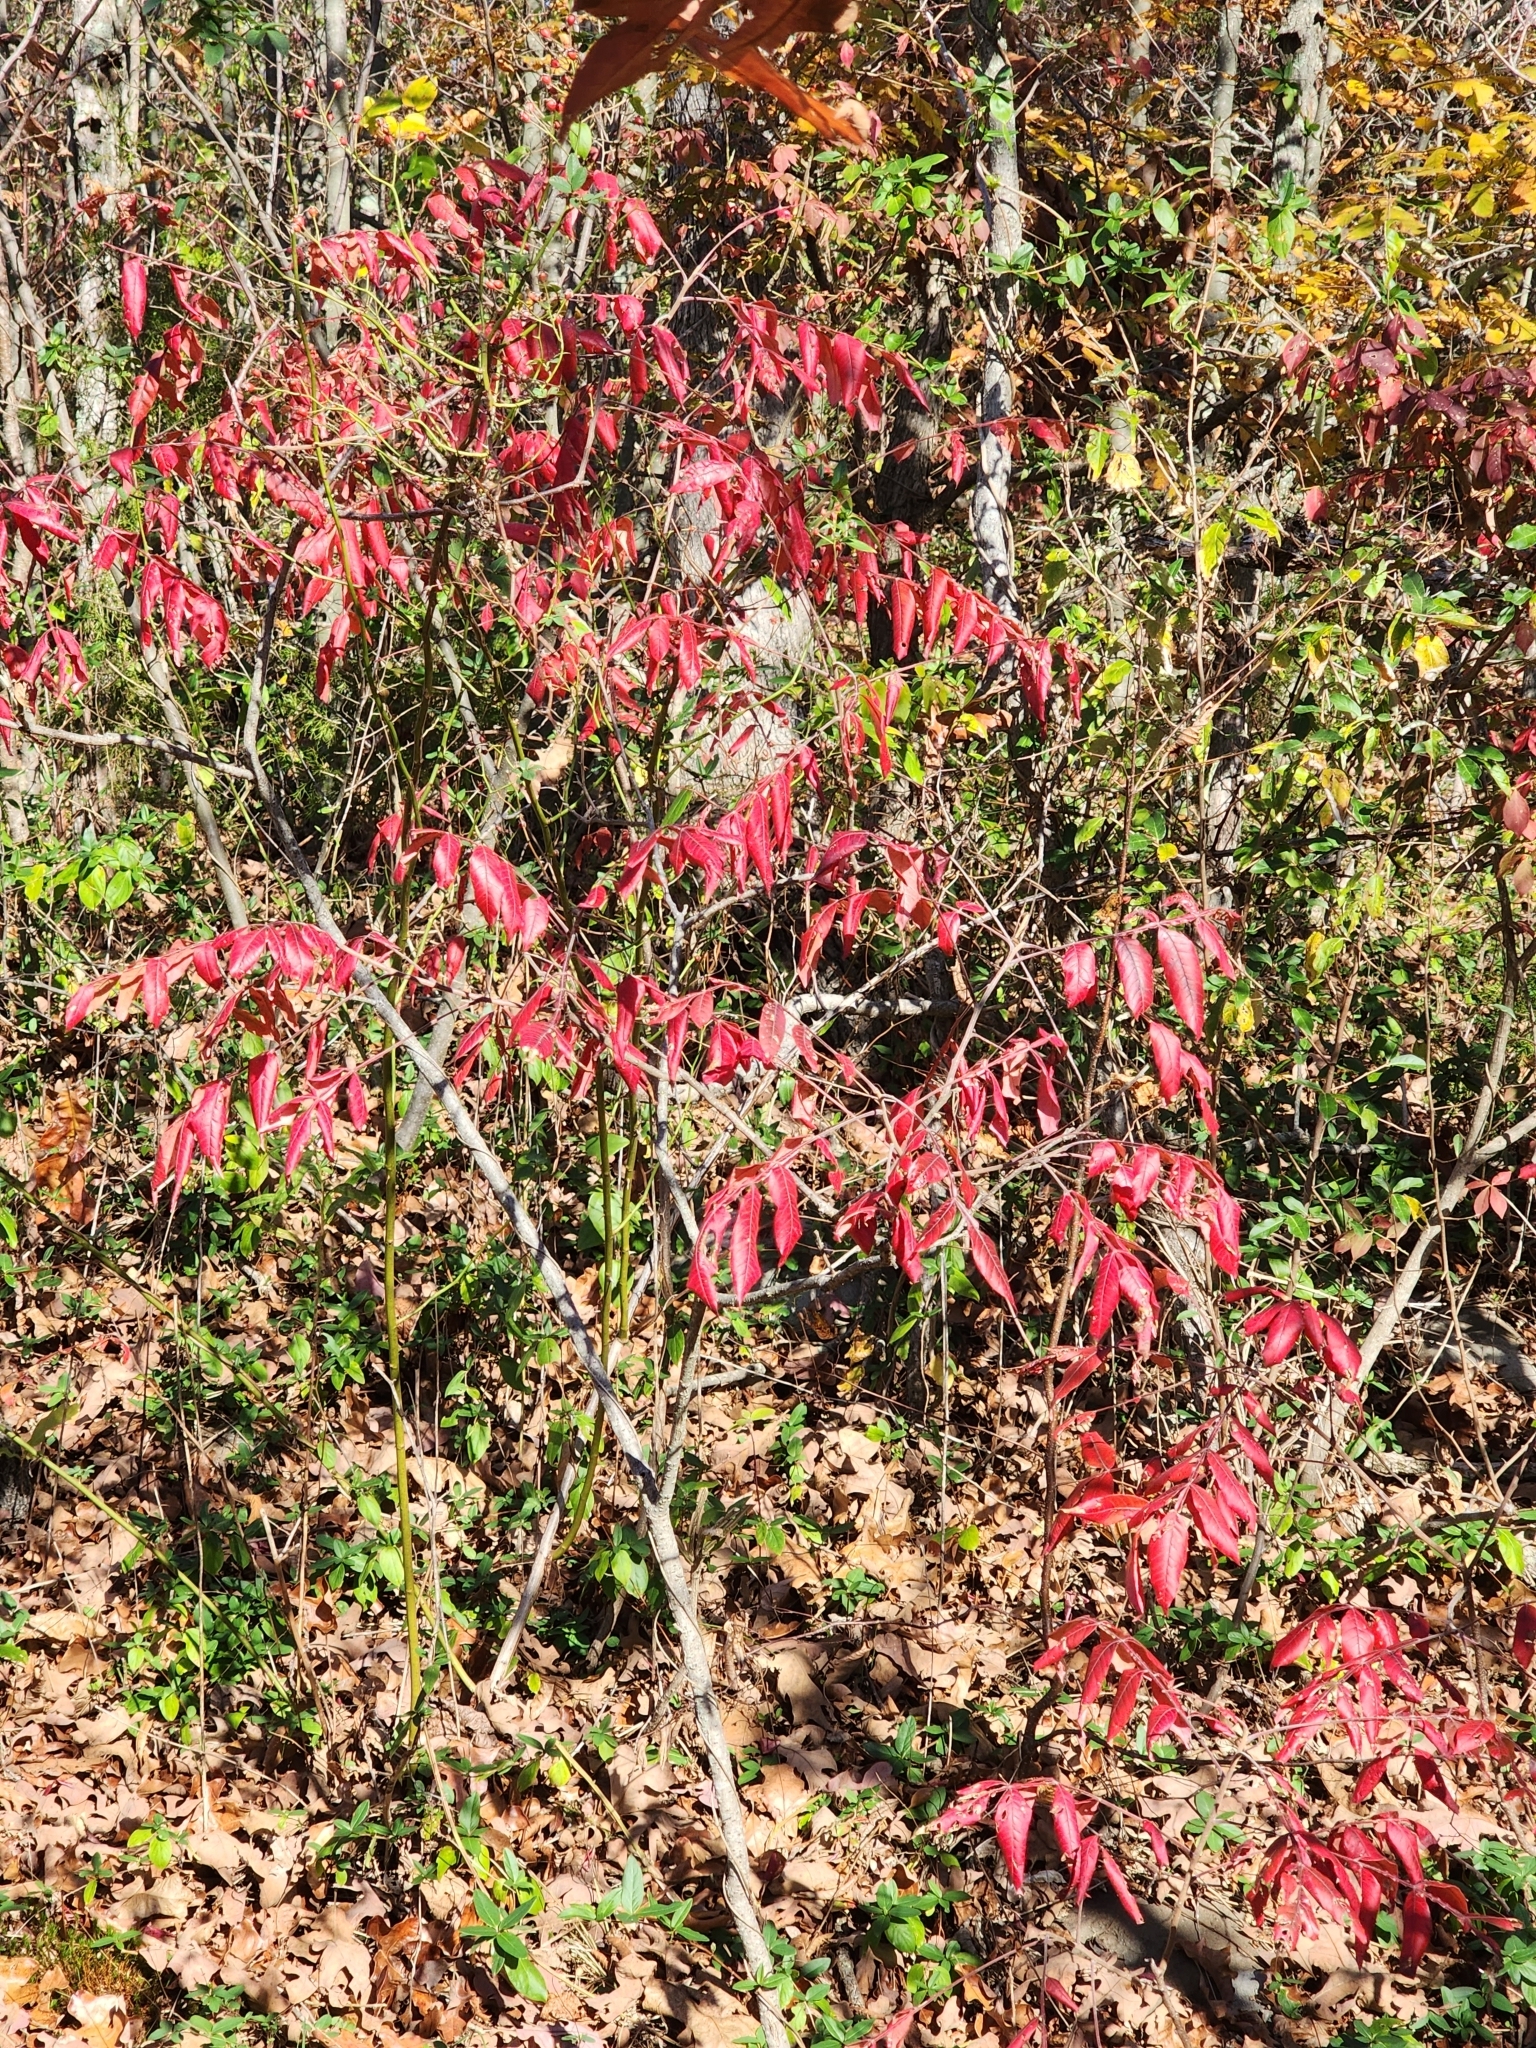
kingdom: Plantae
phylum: Tracheophyta
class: Magnoliopsida
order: Sapindales
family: Anacardiaceae
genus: Rhus
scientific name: Rhus copallina
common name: Shining sumac
